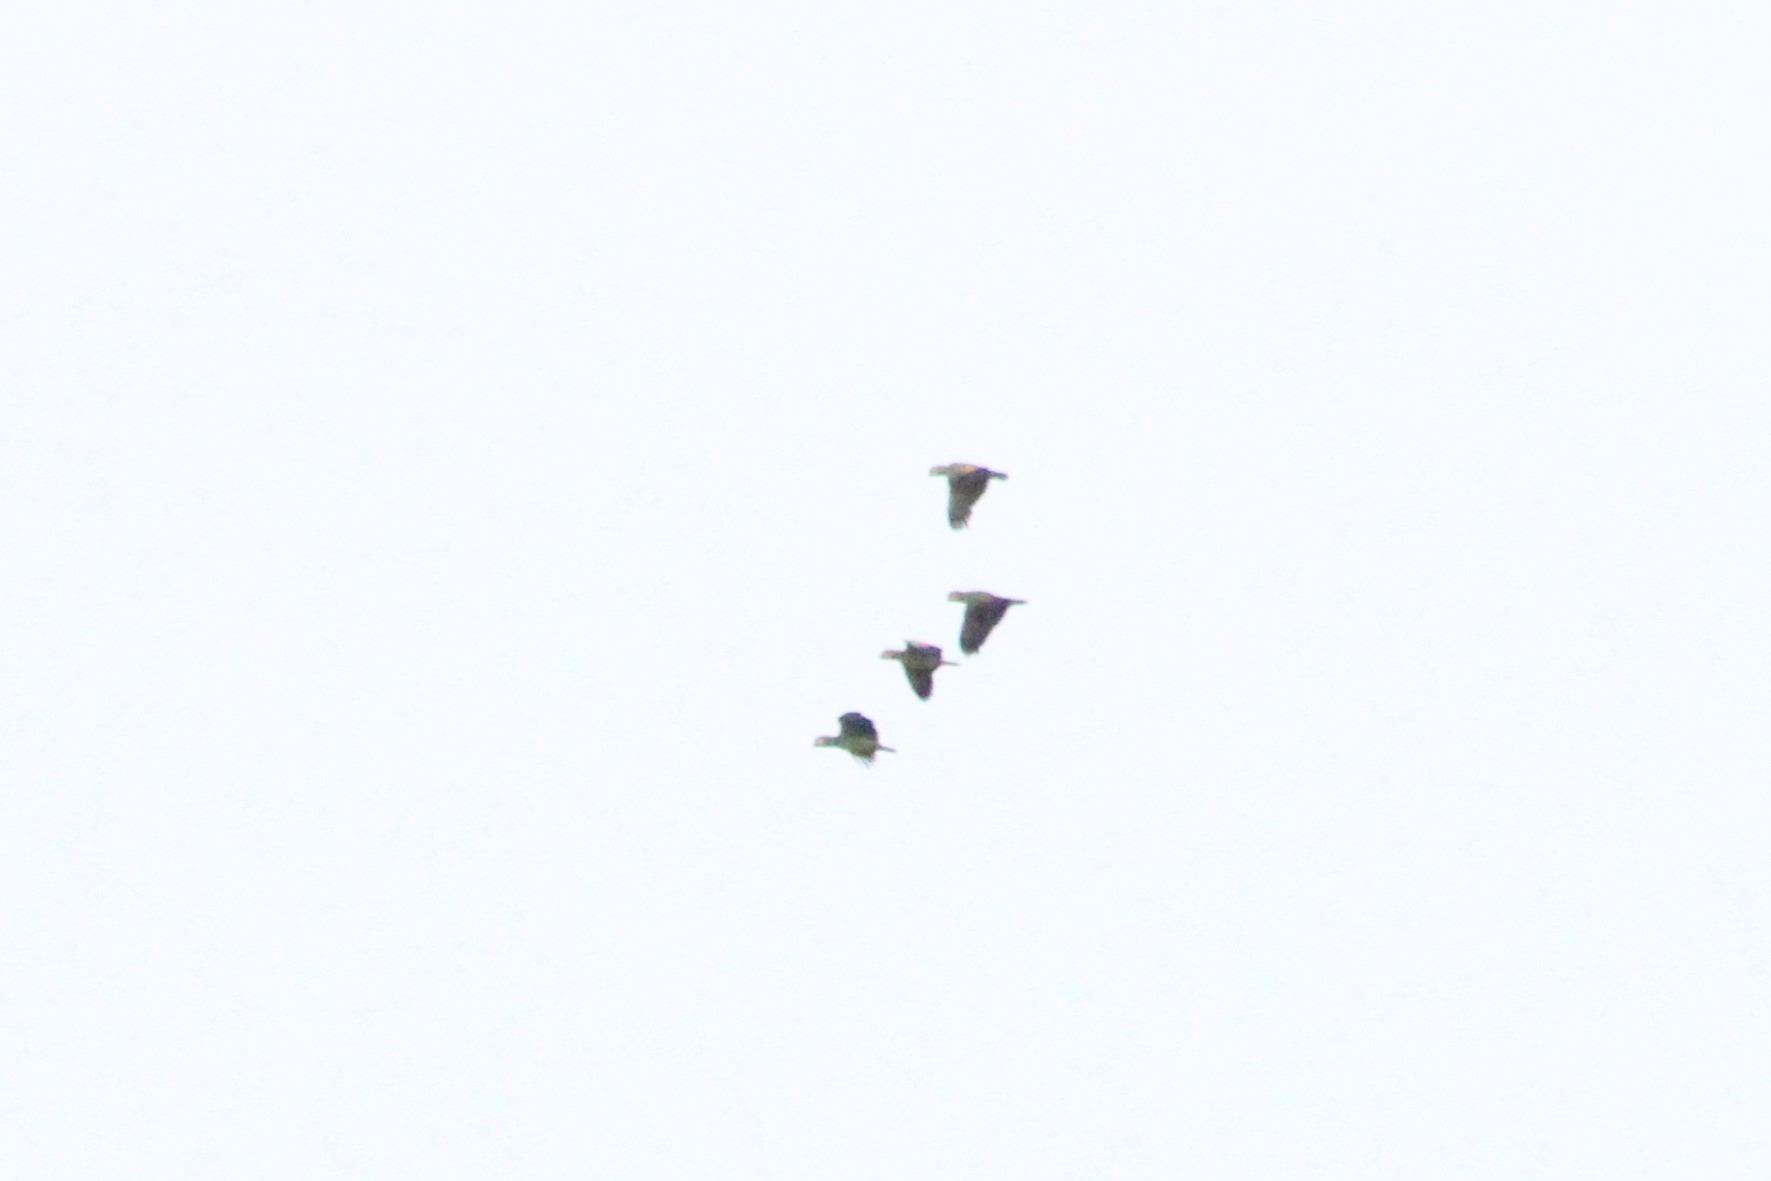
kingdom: Animalia
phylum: Chordata
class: Aves
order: Psittaciformes
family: Psittacidae
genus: Amazona
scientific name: Amazona
